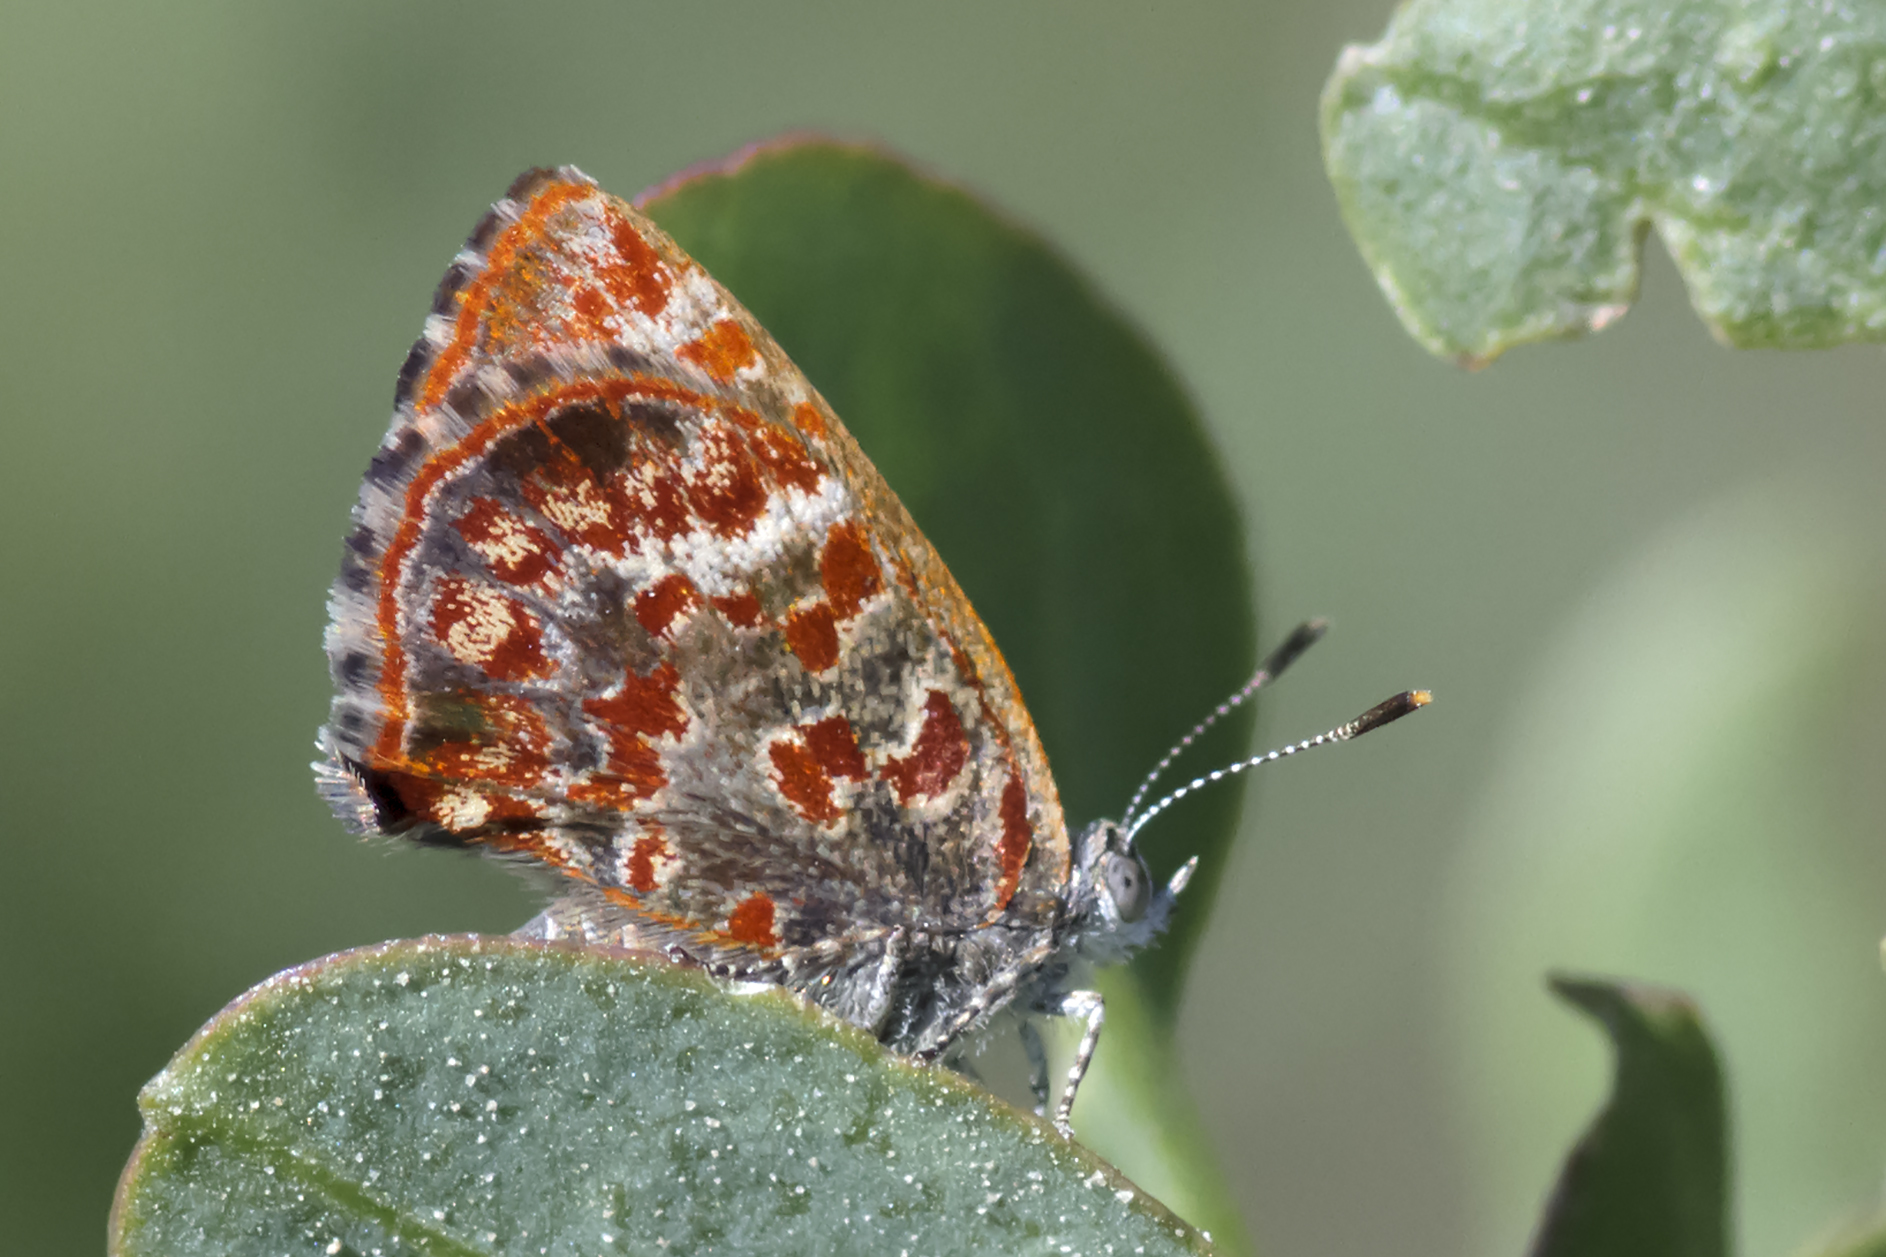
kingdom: Animalia
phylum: Arthropoda
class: Insecta
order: Lepidoptera
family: Lycaenidae
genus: Ministrymon
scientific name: Ministrymon
